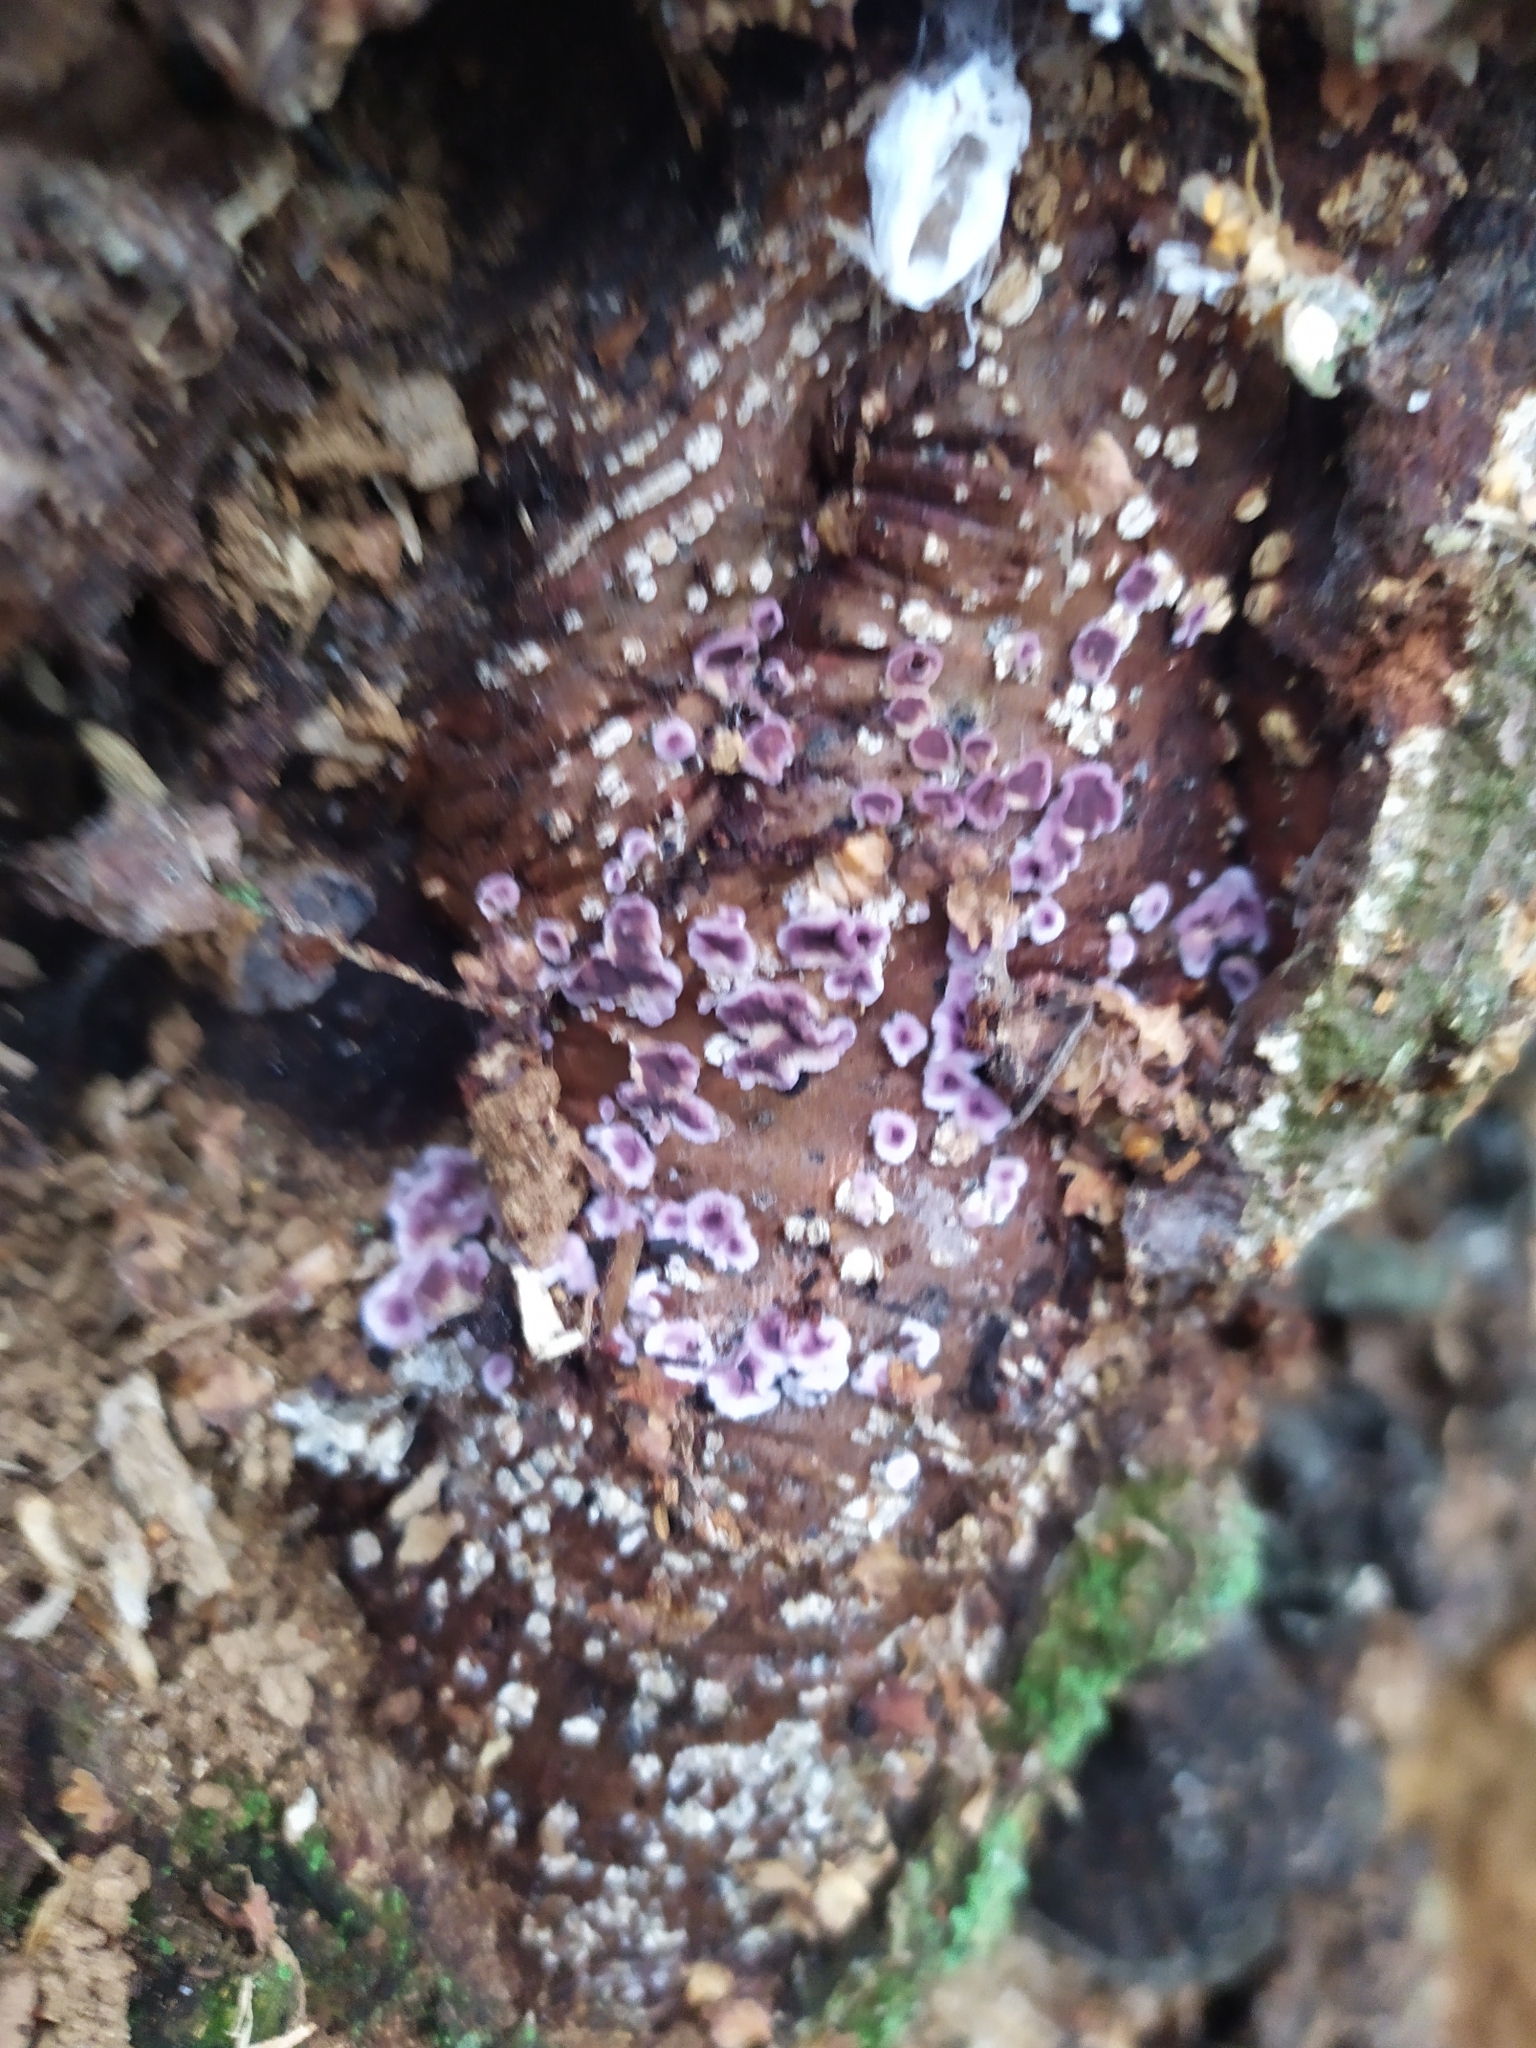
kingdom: Fungi
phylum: Basidiomycota
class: Agaricomycetes
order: Agaricales
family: Cyphellaceae
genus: Chondrostereum
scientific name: Chondrostereum purpureum
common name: Silver leaf disease
